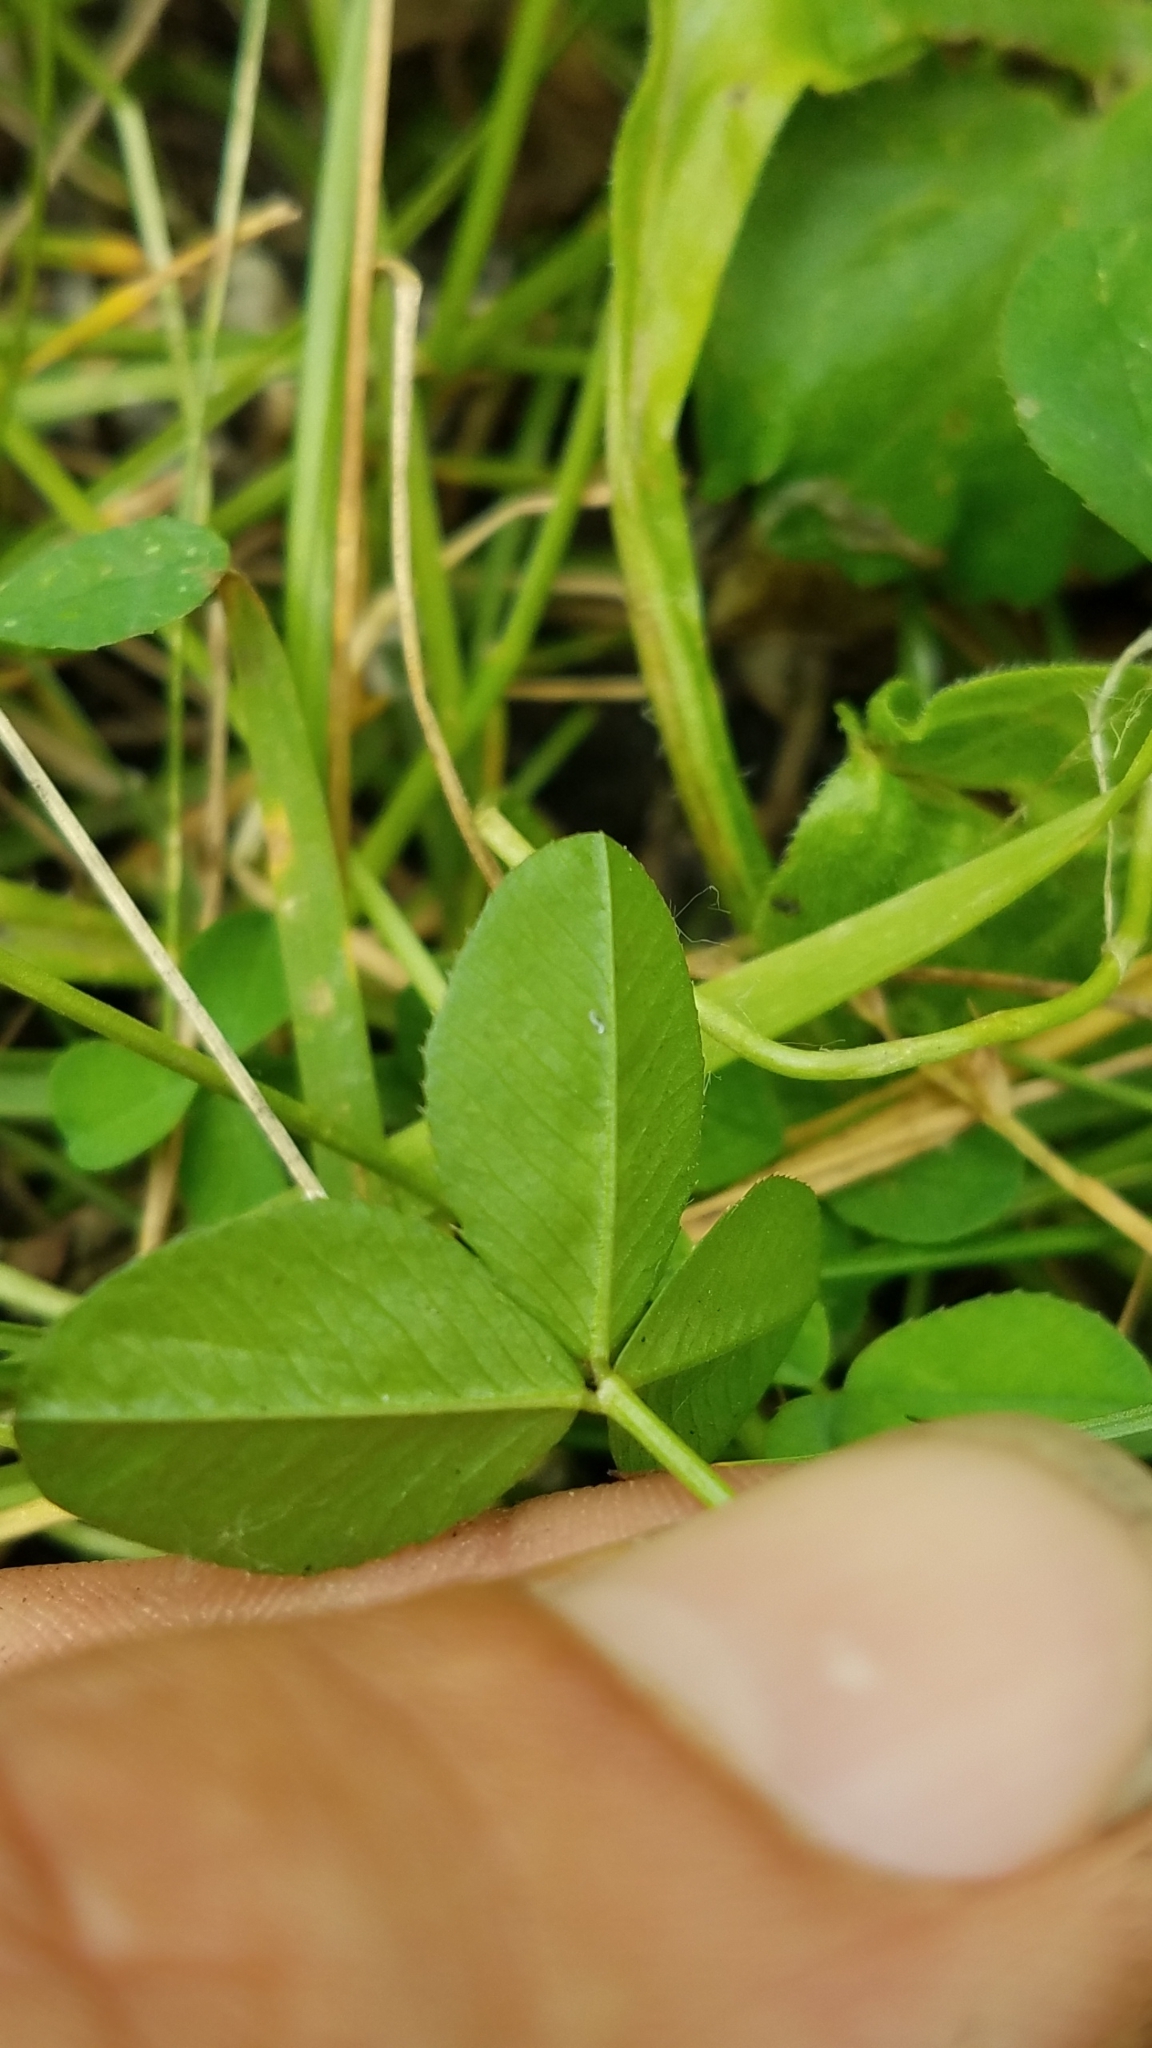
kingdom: Plantae
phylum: Tracheophyta
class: Magnoliopsida
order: Fabales
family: Fabaceae
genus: Trifolium
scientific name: Trifolium repens
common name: White clover
